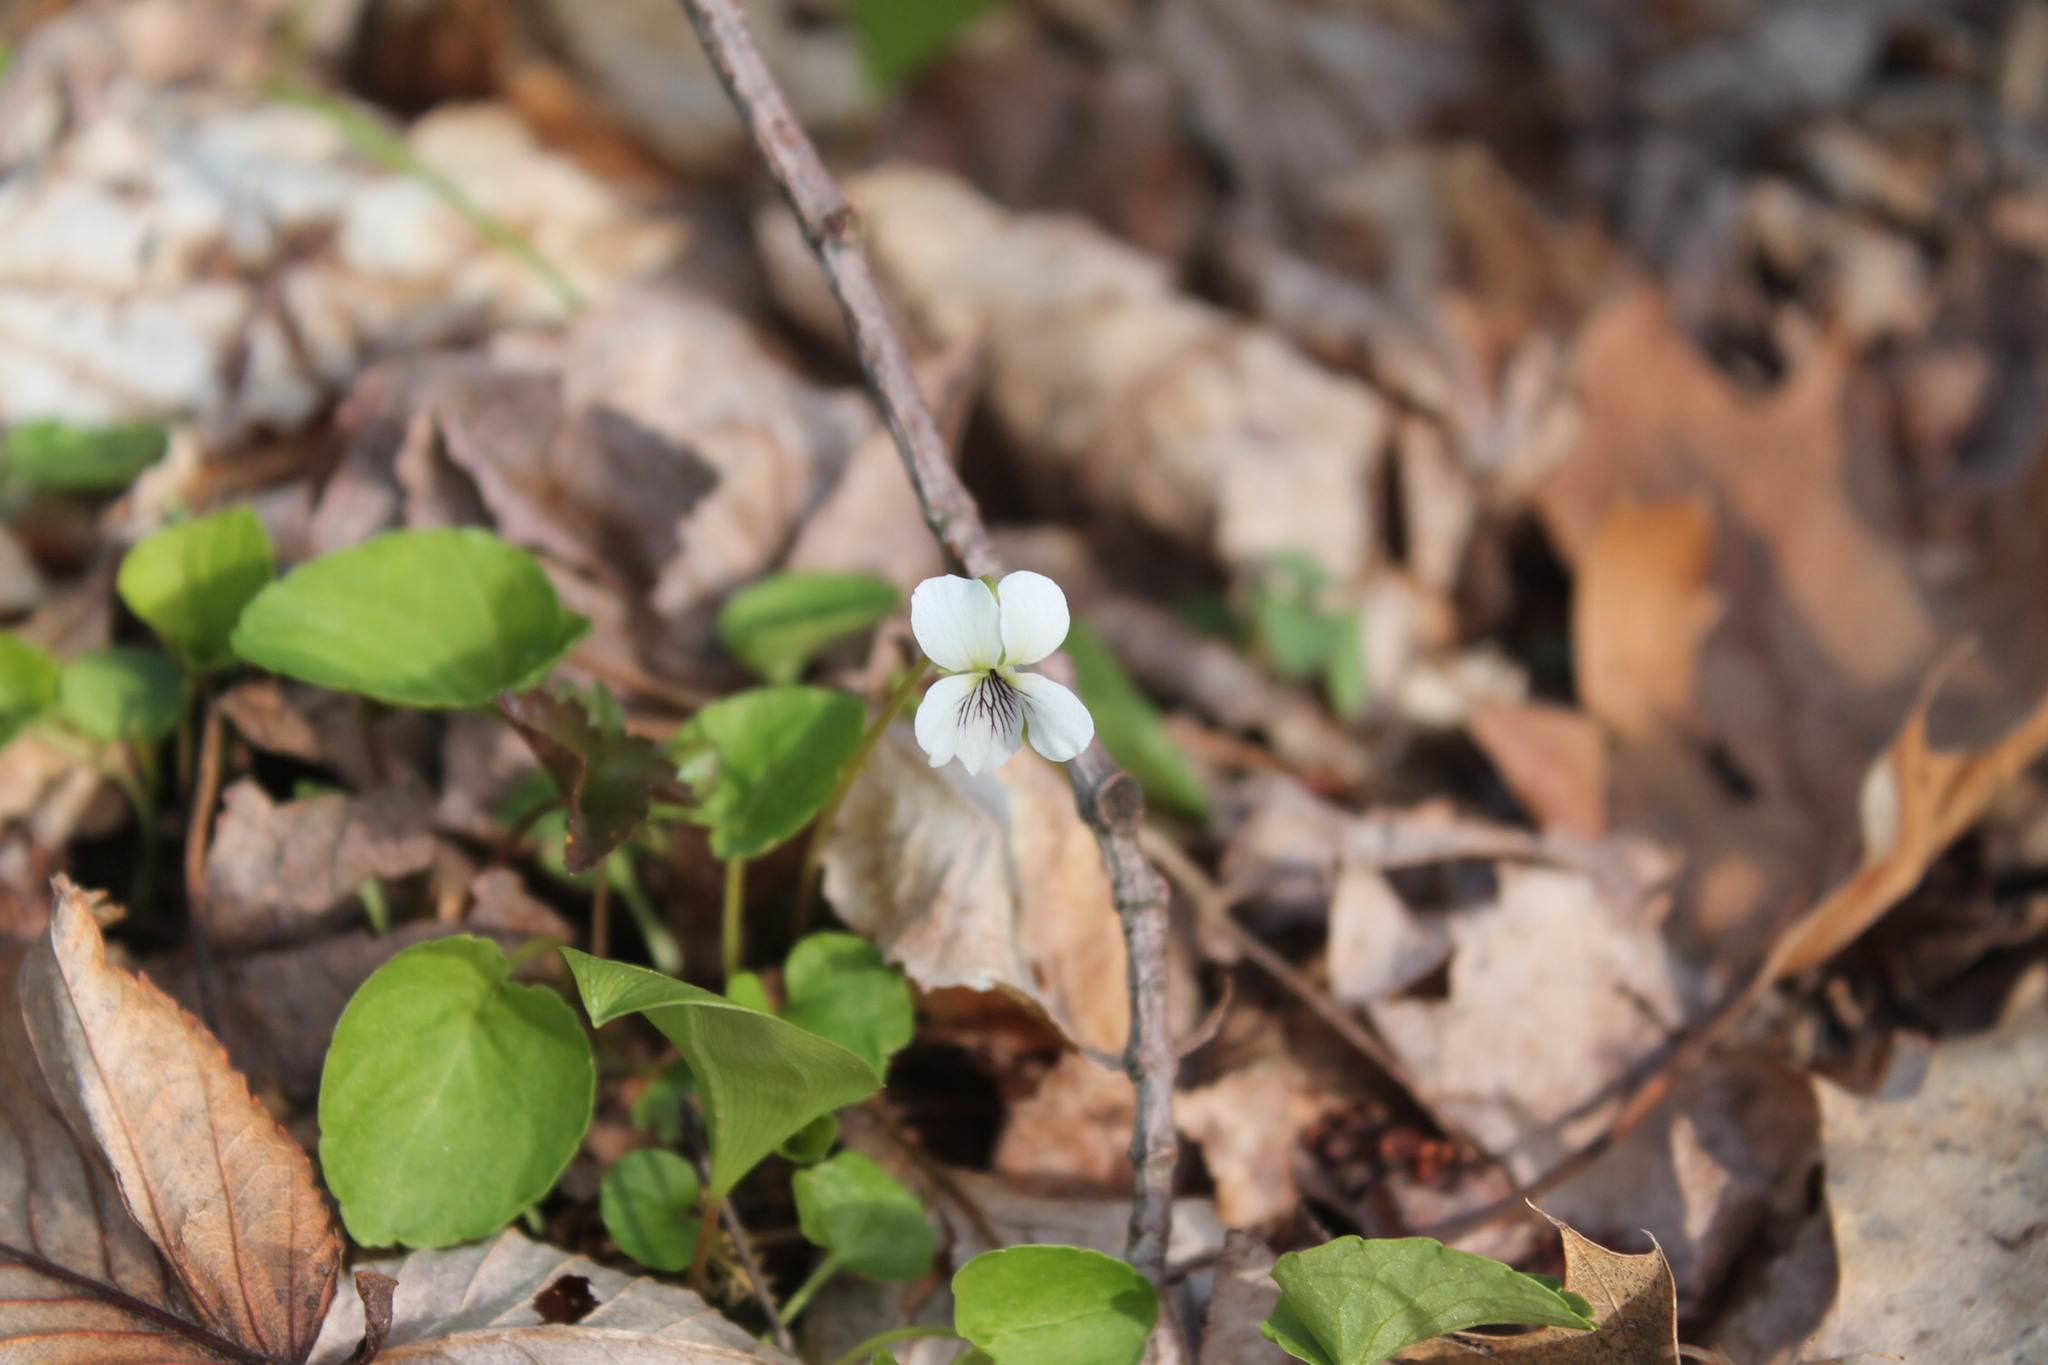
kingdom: Plantae
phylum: Tracheophyta
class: Magnoliopsida
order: Malpighiales
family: Violaceae
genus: Viola
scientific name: Viola blanda
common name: Sweet white violet
